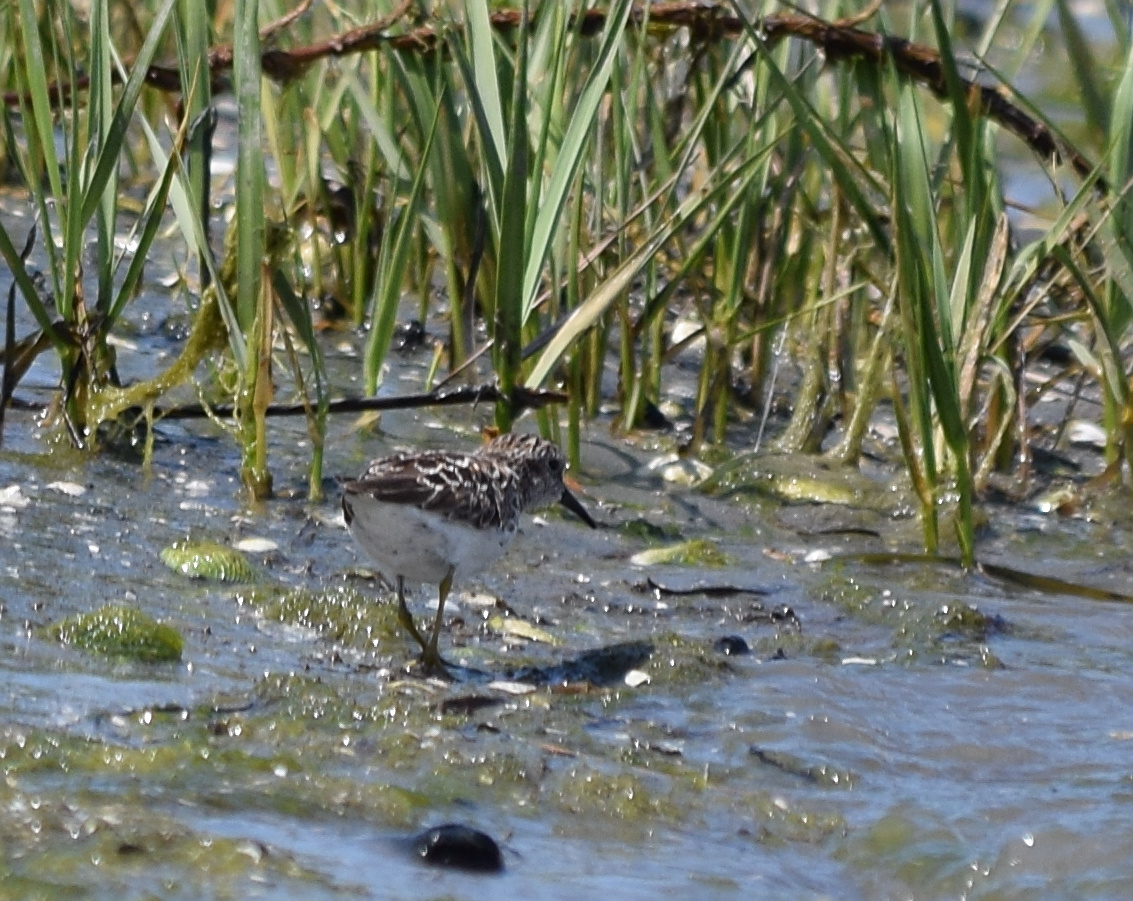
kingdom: Animalia
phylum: Chordata
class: Aves
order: Charadriiformes
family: Scolopacidae
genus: Calidris
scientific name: Calidris minutilla
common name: Least sandpiper
